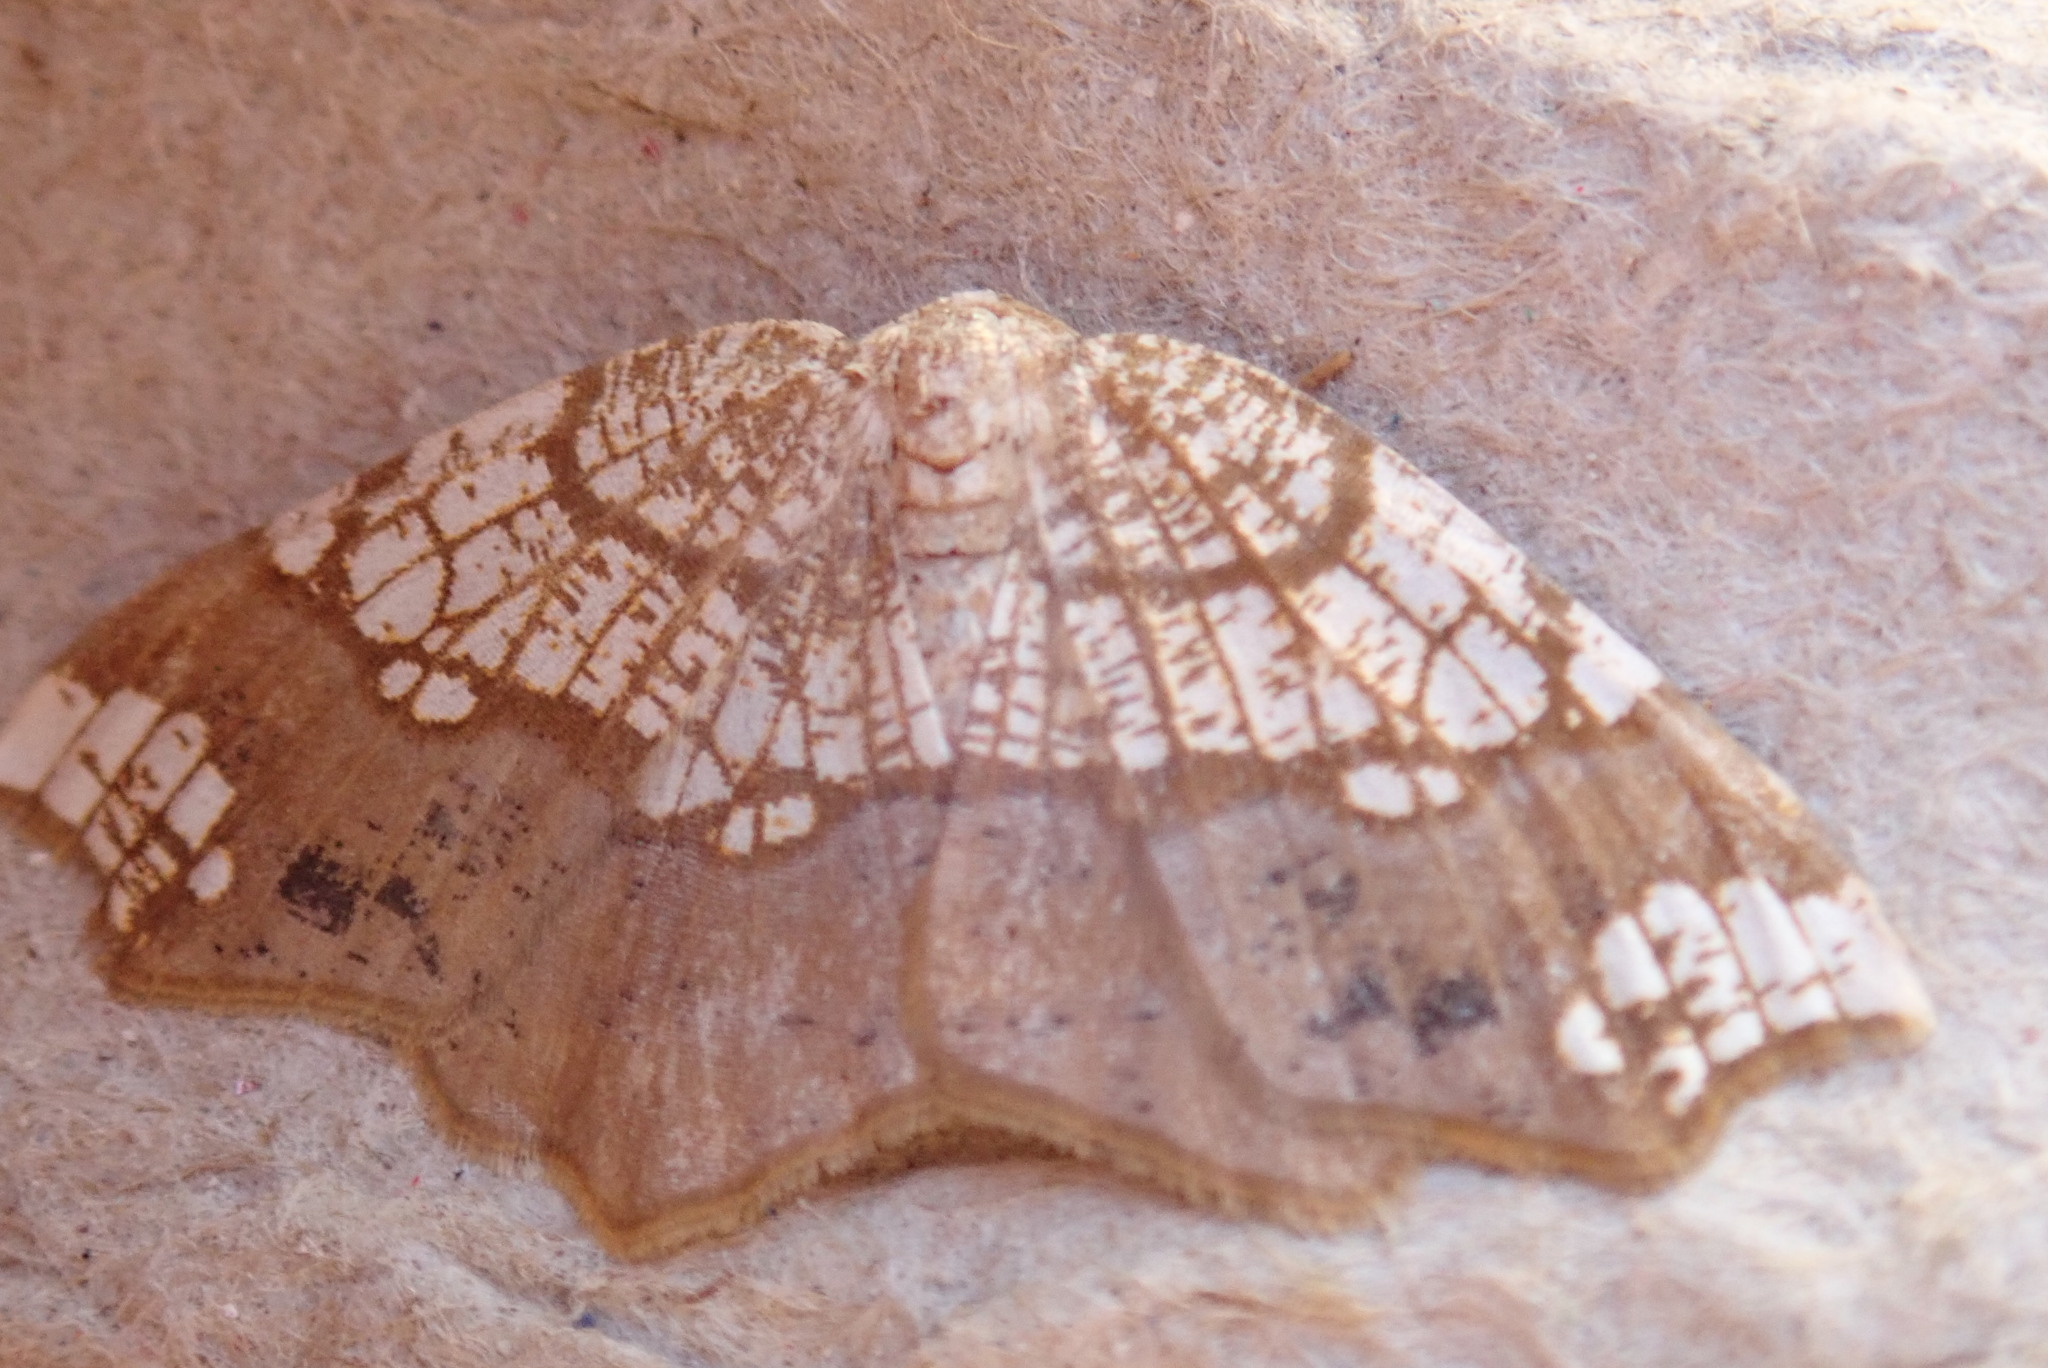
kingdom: Animalia
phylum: Arthropoda
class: Insecta
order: Lepidoptera
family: Geometridae
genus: Nematocampa
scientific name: Nematocampa resistaria
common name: Horned spanworm moth
